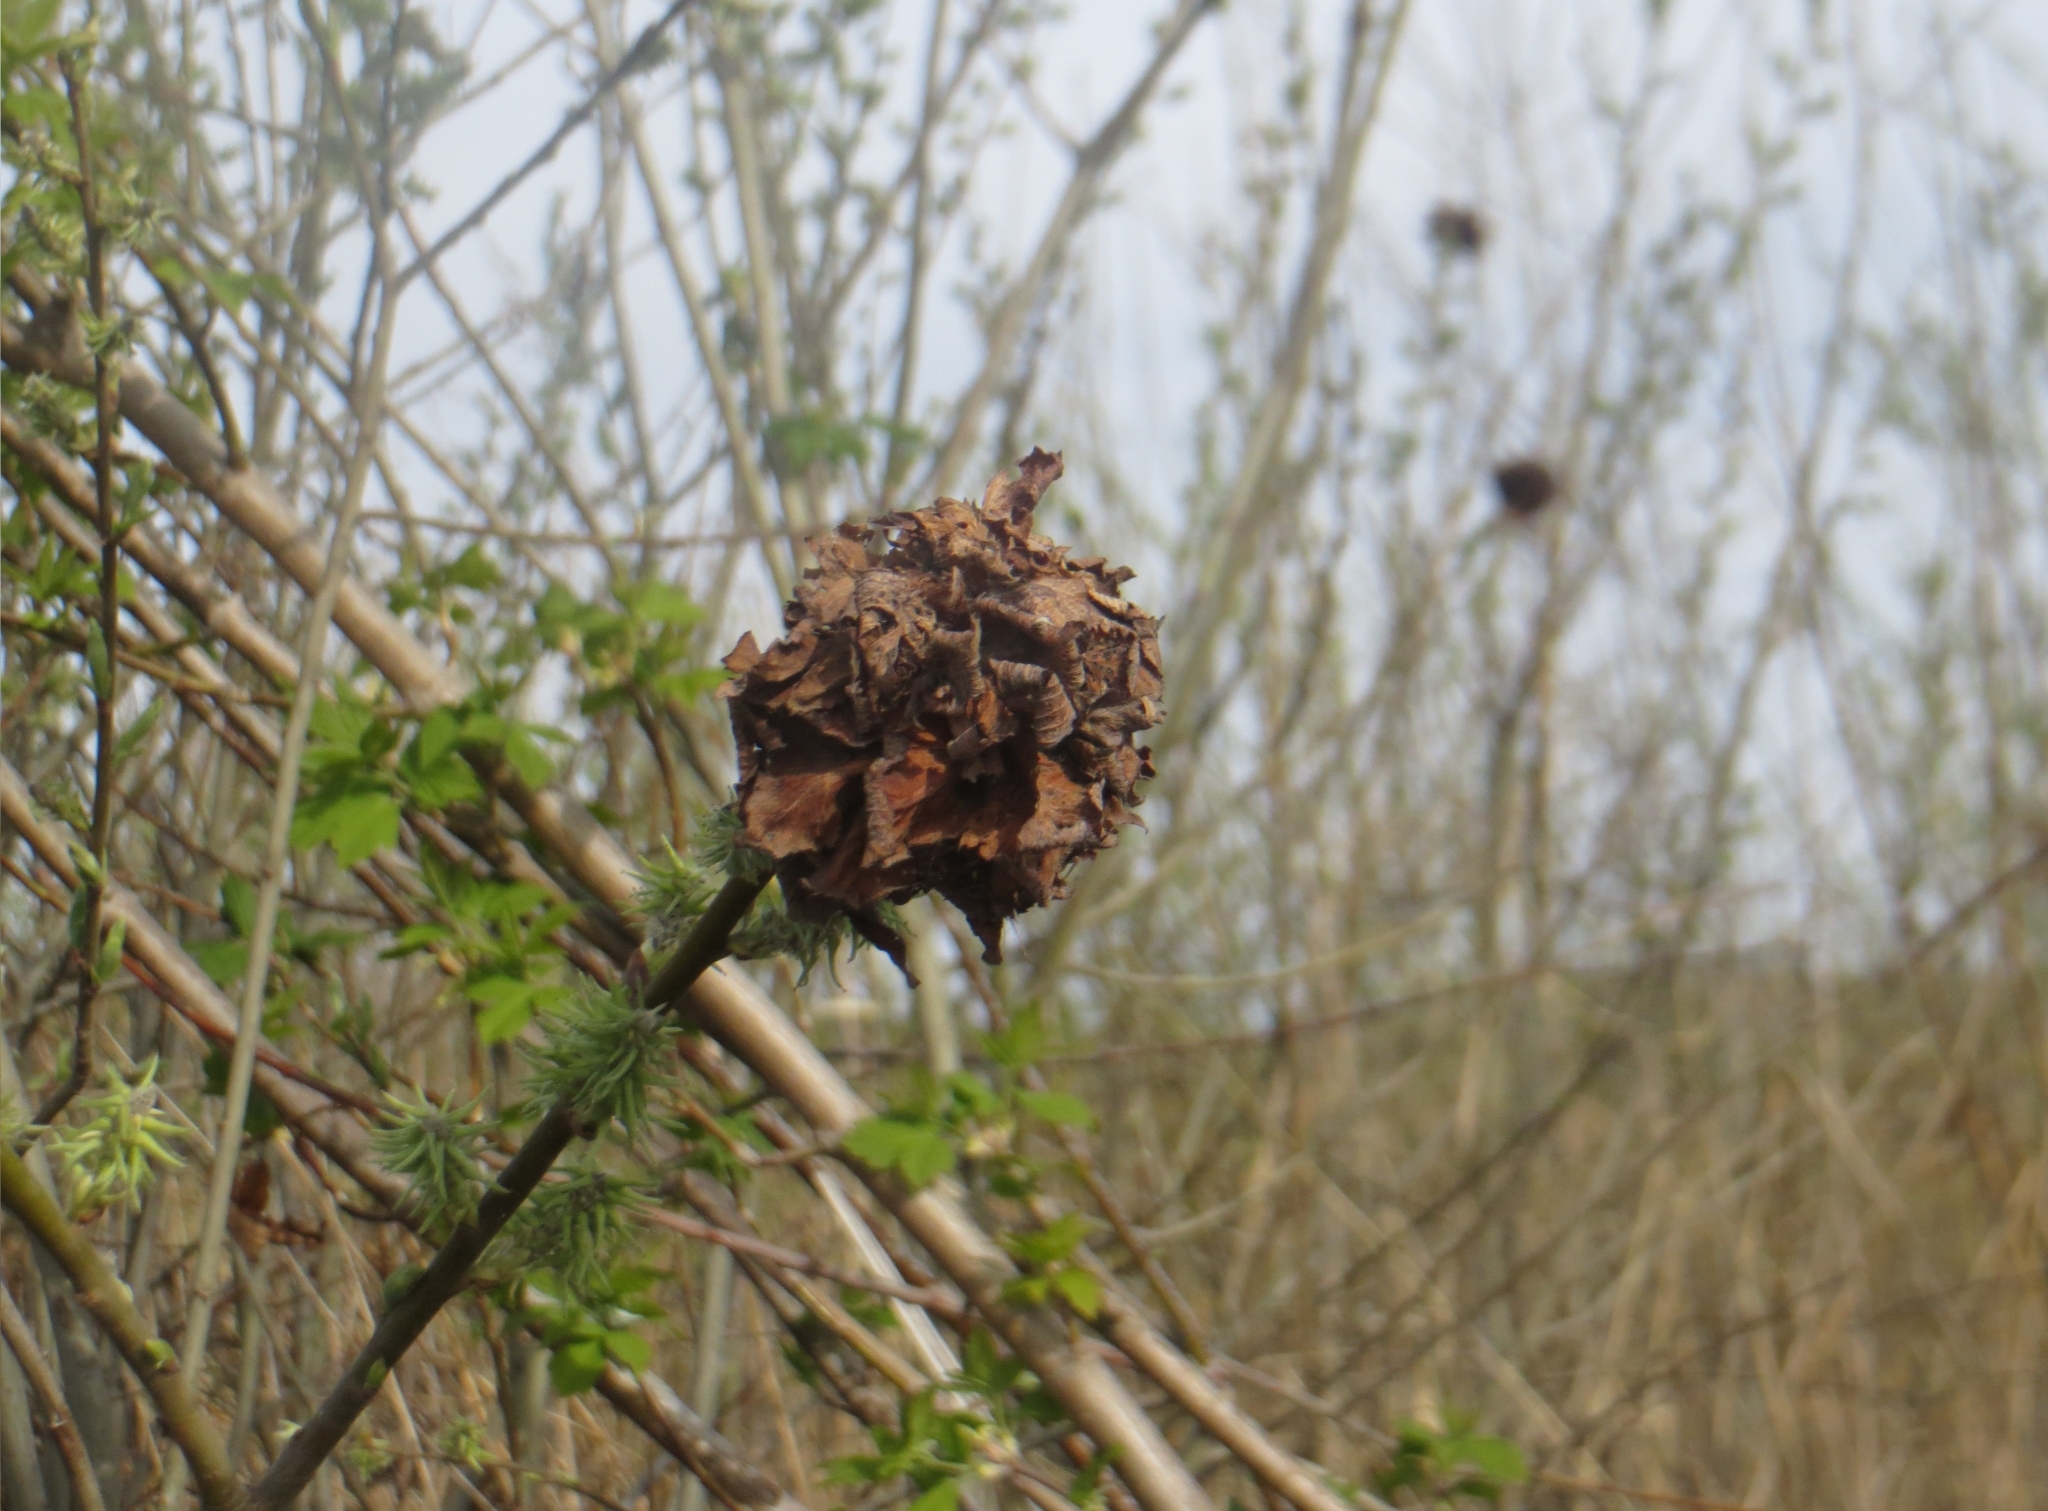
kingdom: Animalia
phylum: Arthropoda
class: Insecta
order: Diptera
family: Cecidomyiidae
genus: Rabdophaga
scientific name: Rabdophaga rosaria
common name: Willow rose gall midge
